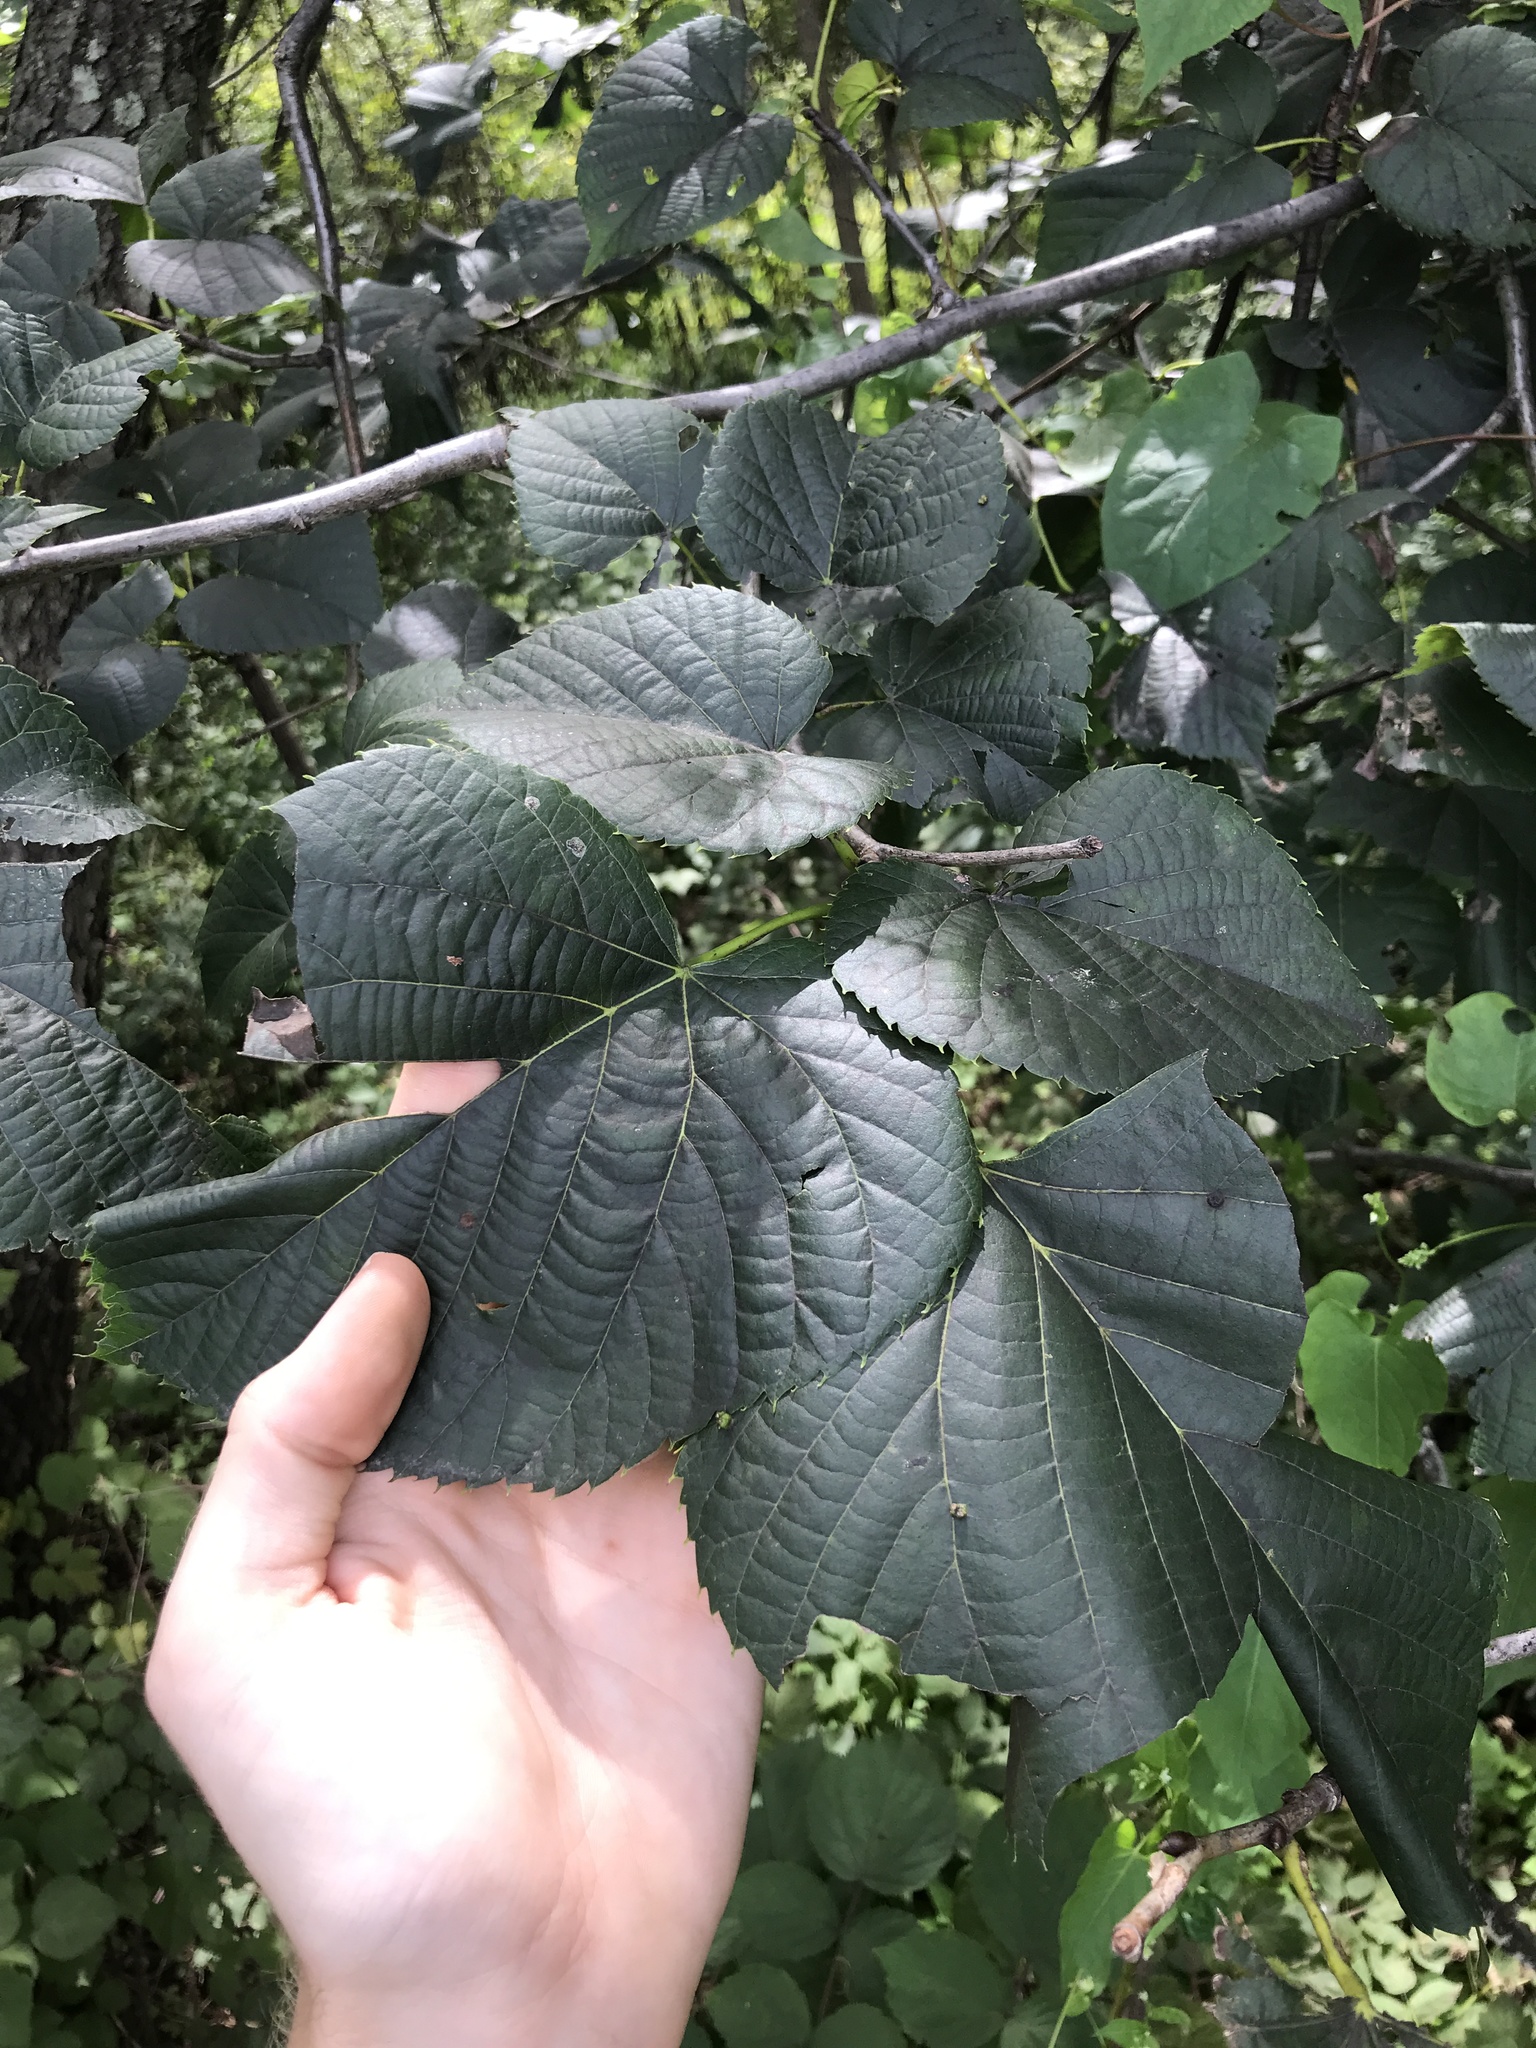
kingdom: Plantae
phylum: Tracheophyta
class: Magnoliopsida
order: Malvales
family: Malvaceae
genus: Tilia
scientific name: Tilia americana
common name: Basswood
